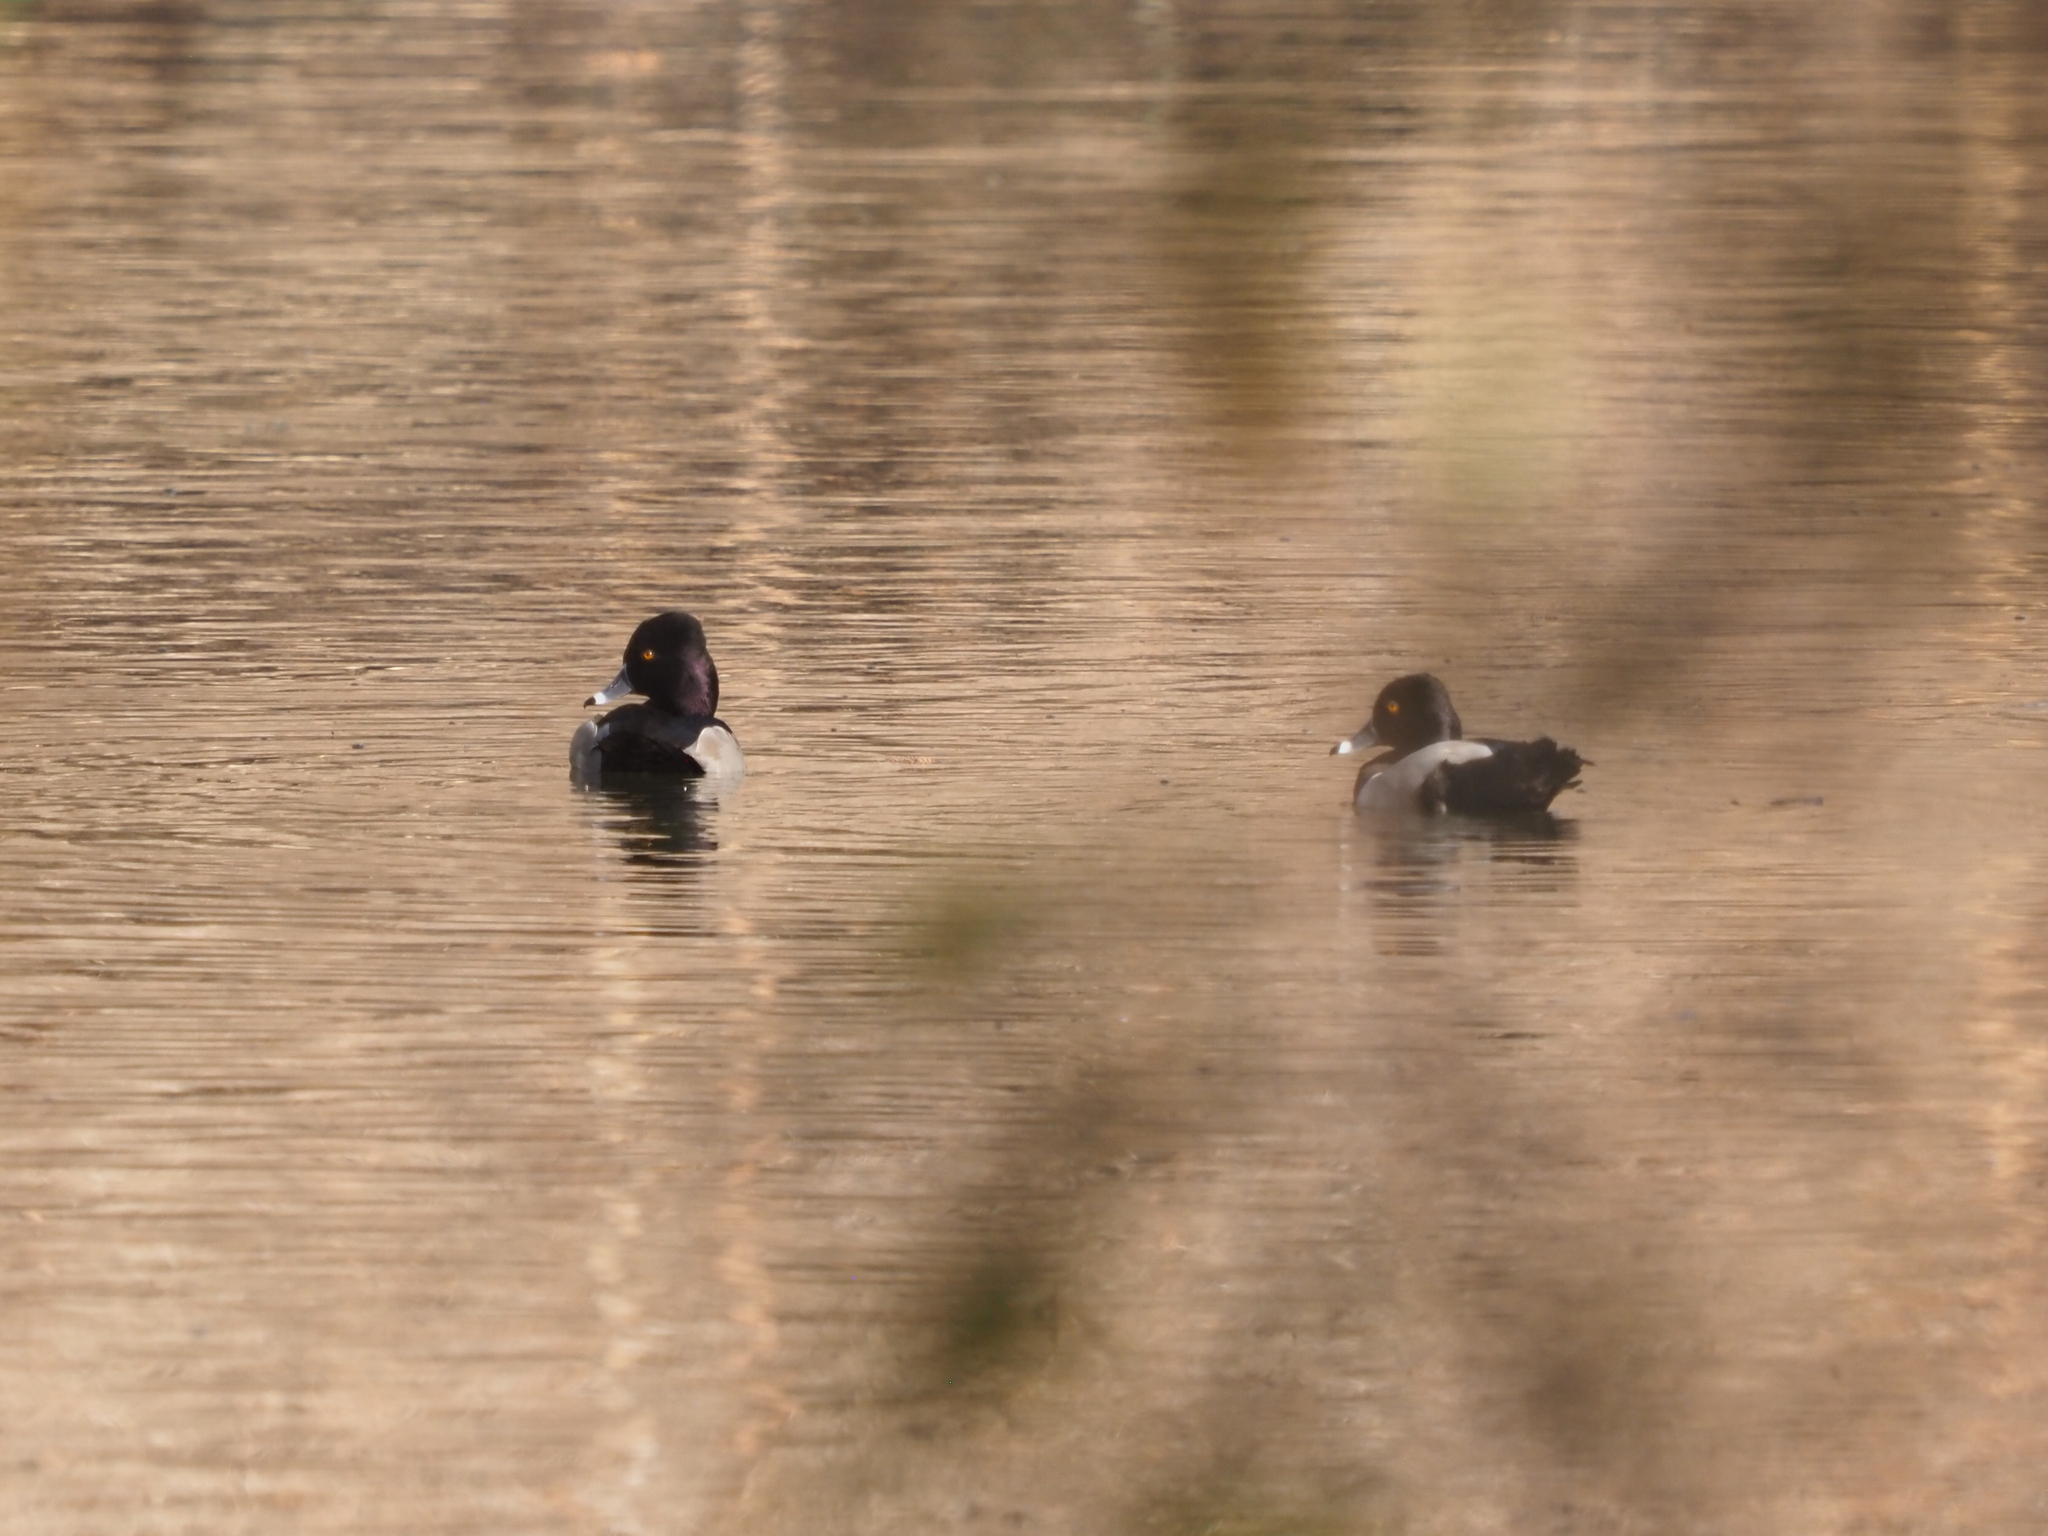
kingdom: Animalia
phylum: Chordata
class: Aves
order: Anseriformes
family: Anatidae
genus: Aythya
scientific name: Aythya collaris
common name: Ring-necked duck
